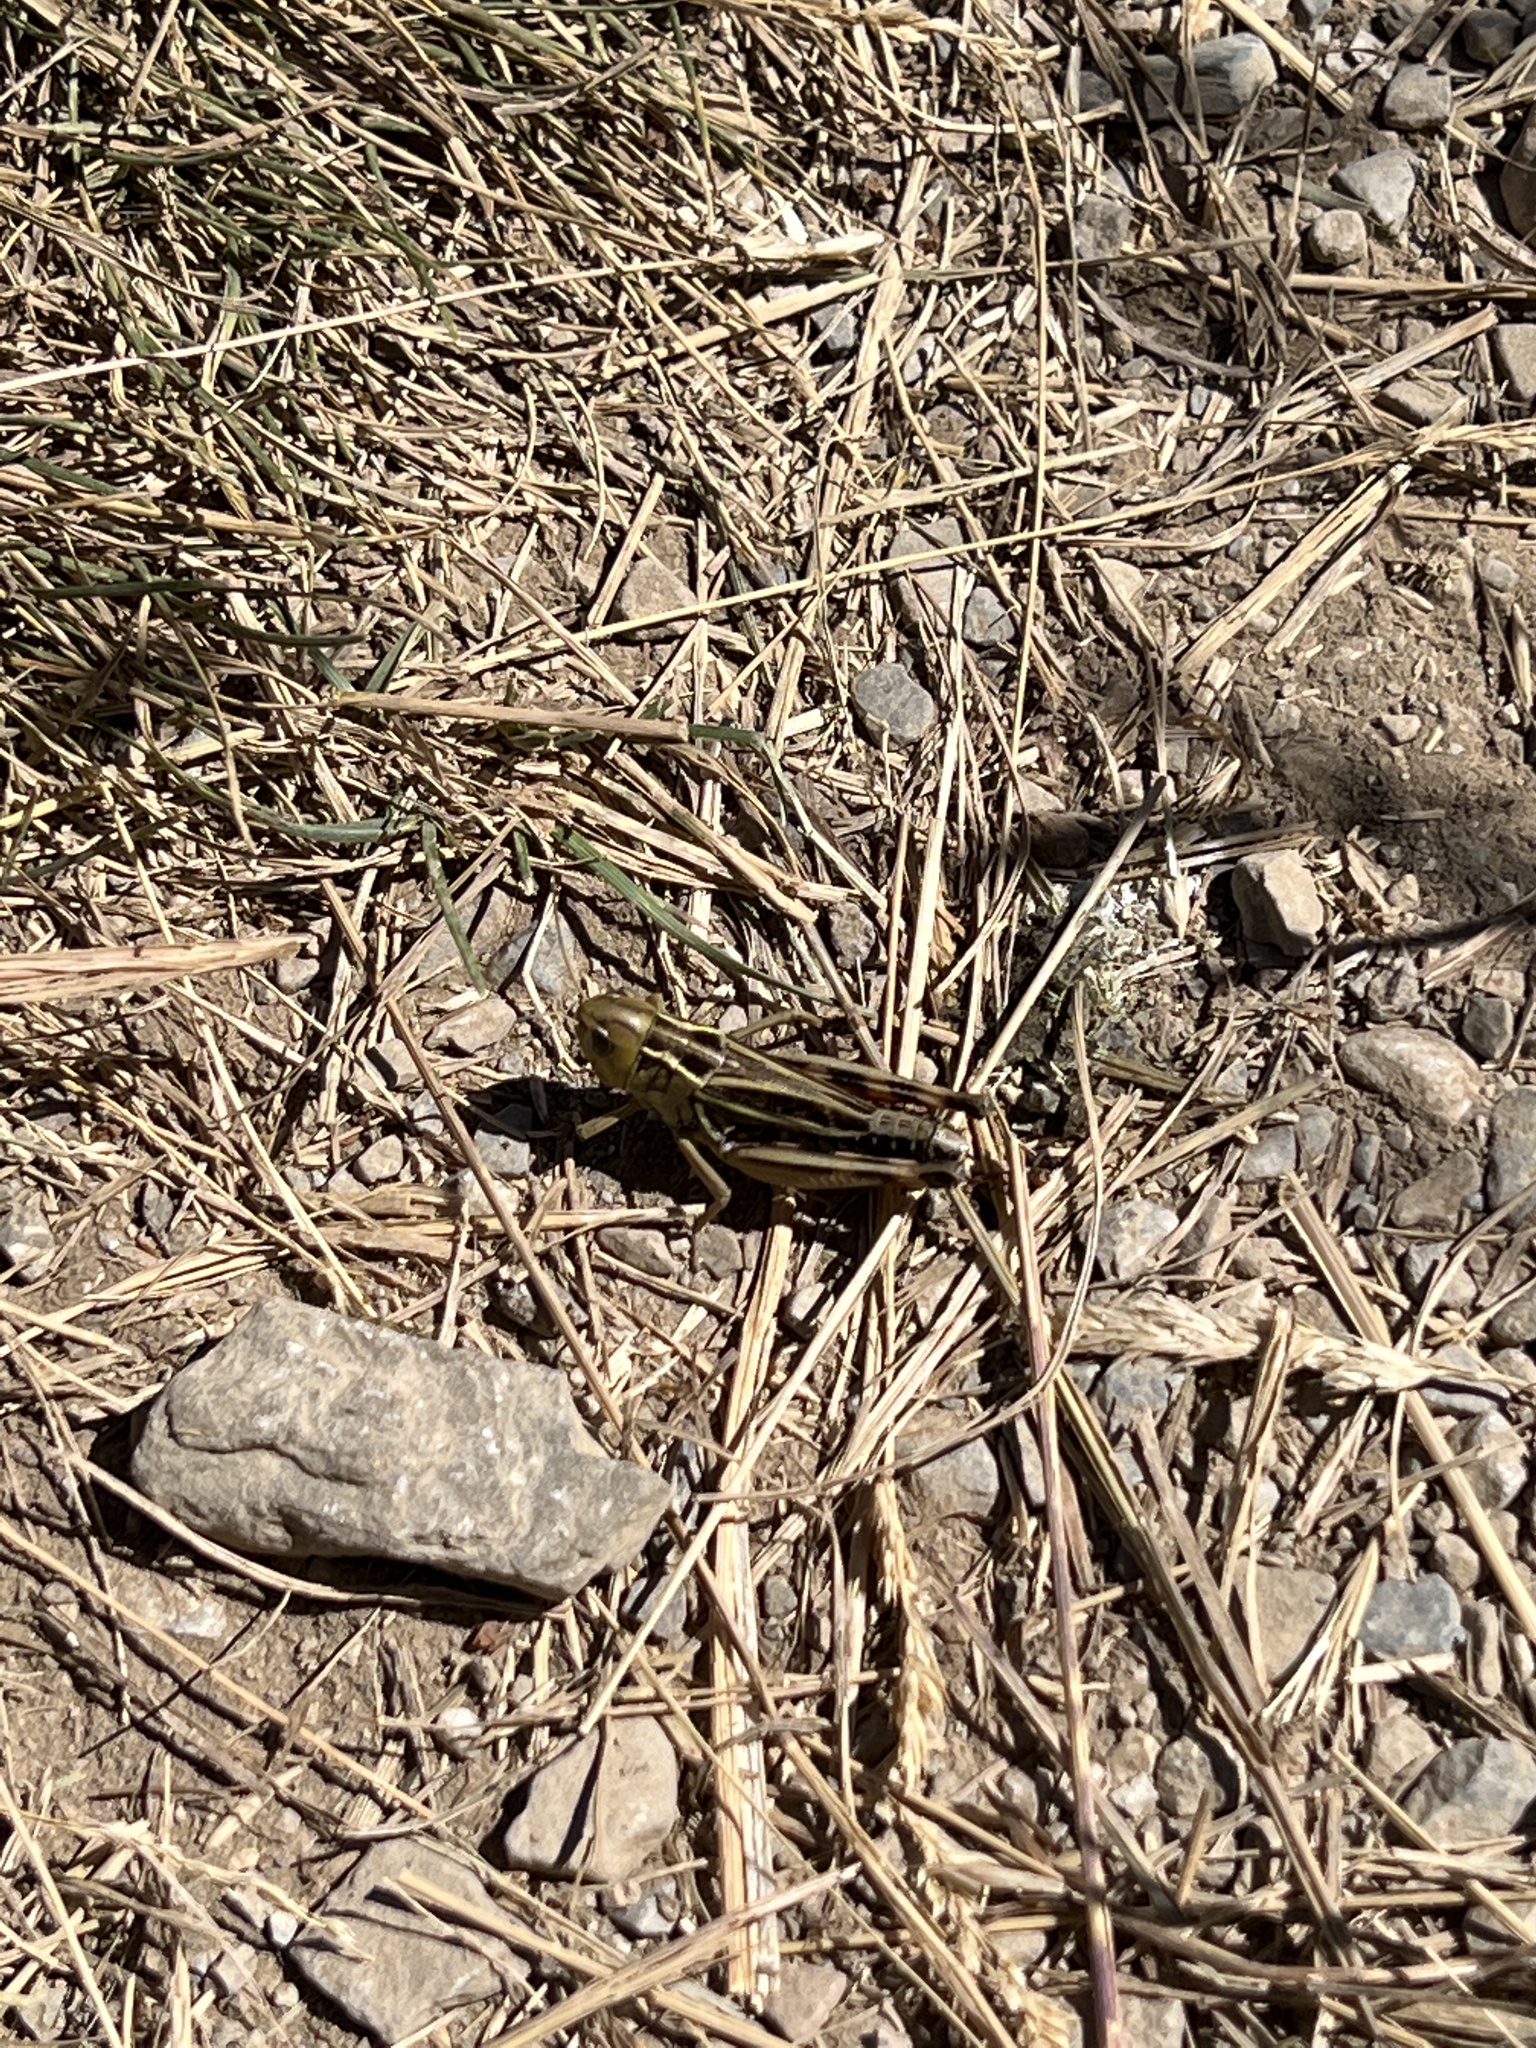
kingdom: Animalia
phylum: Arthropoda
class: Insecta
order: Orthoptera
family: Acrididae
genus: Arcyptera
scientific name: Arcyptera fusca
